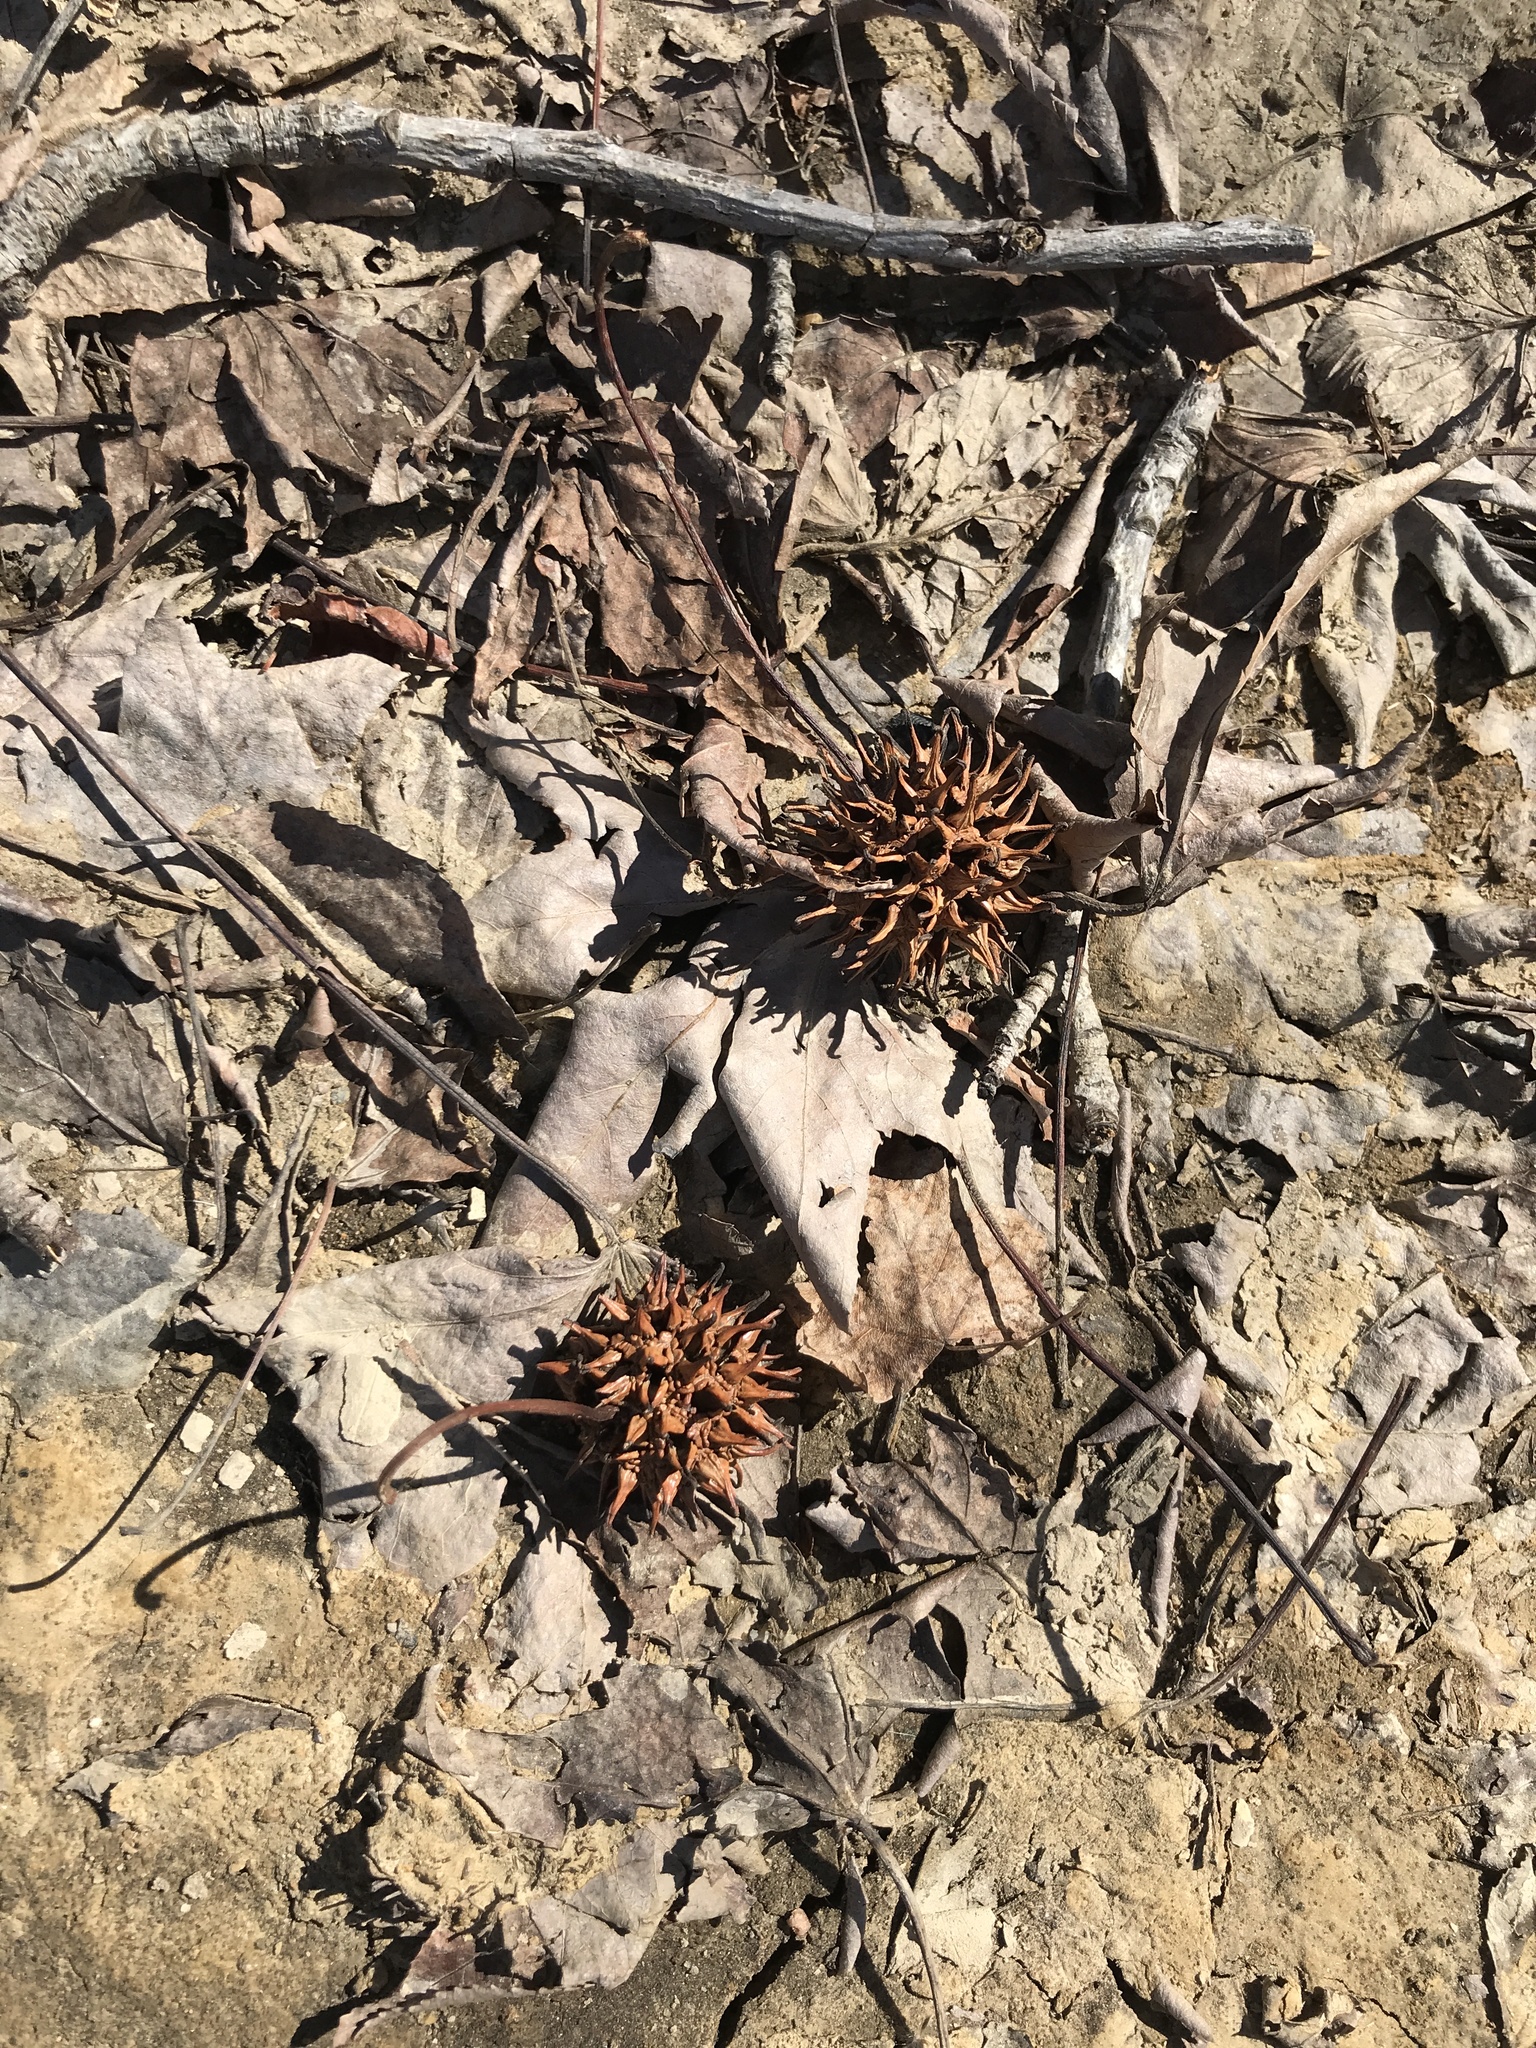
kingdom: Plantae
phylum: Tracheophyta
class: Magnoliopsida
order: Saxifragales
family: Altingiaceae
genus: Liquidambar
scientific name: Liquidambar styraciflua
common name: Sweet gum
